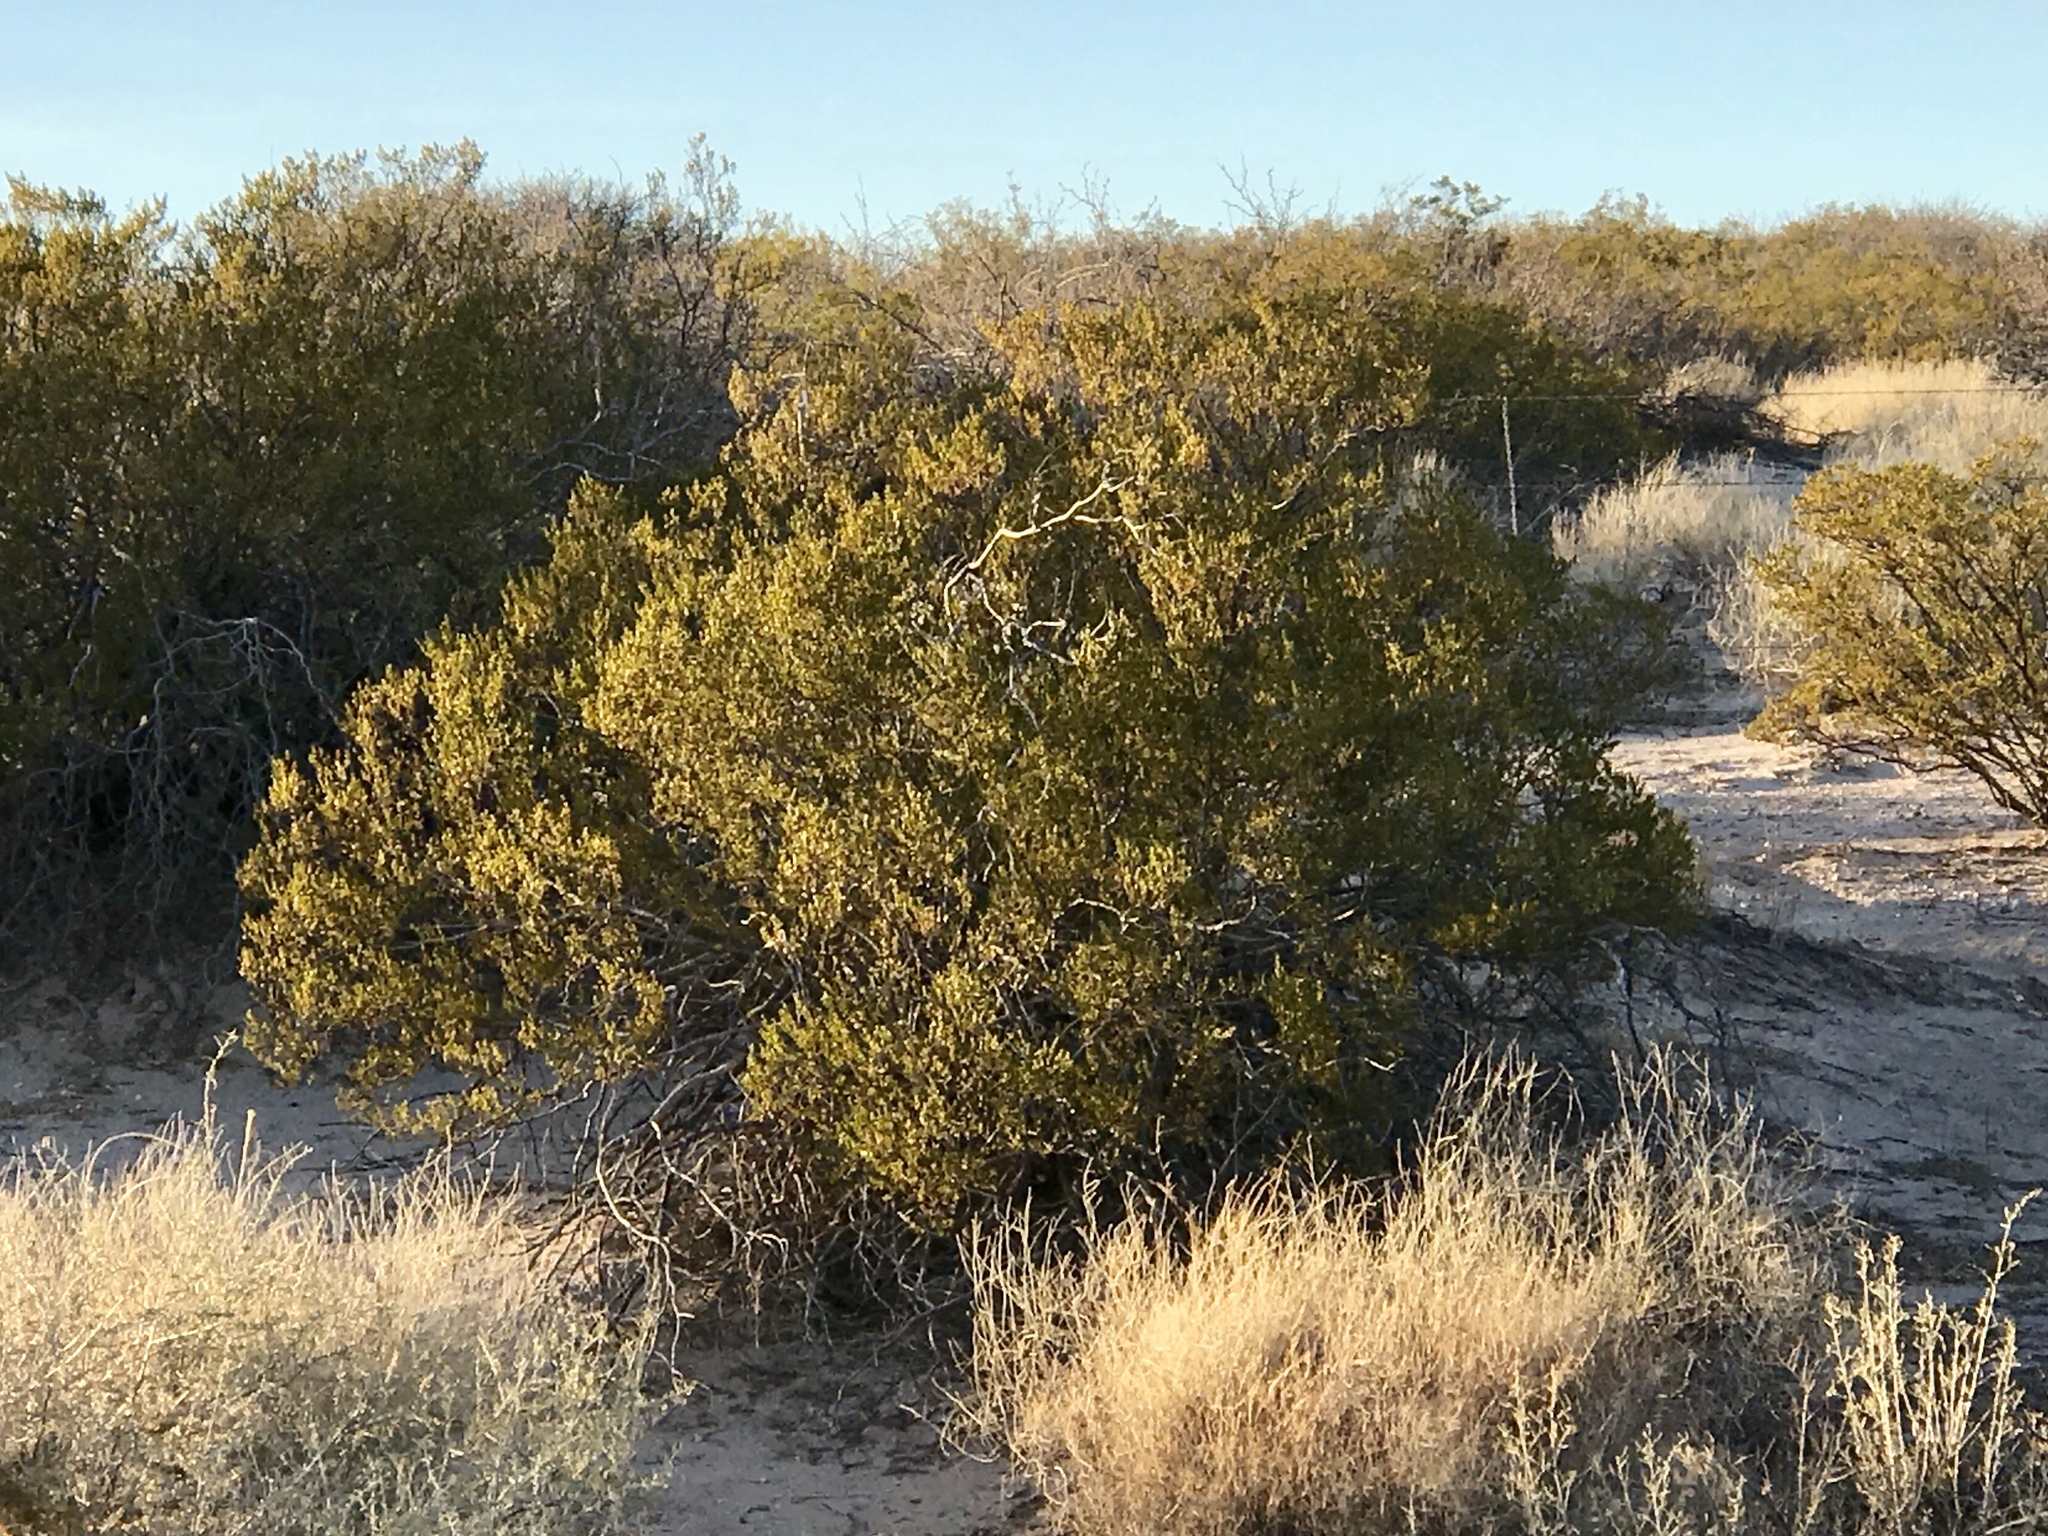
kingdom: Plantae
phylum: Tracheophyta
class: Magnoliopsida
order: Zygophyllales
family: Zygophyllaceae
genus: Larrea
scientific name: Larrea tridentata
